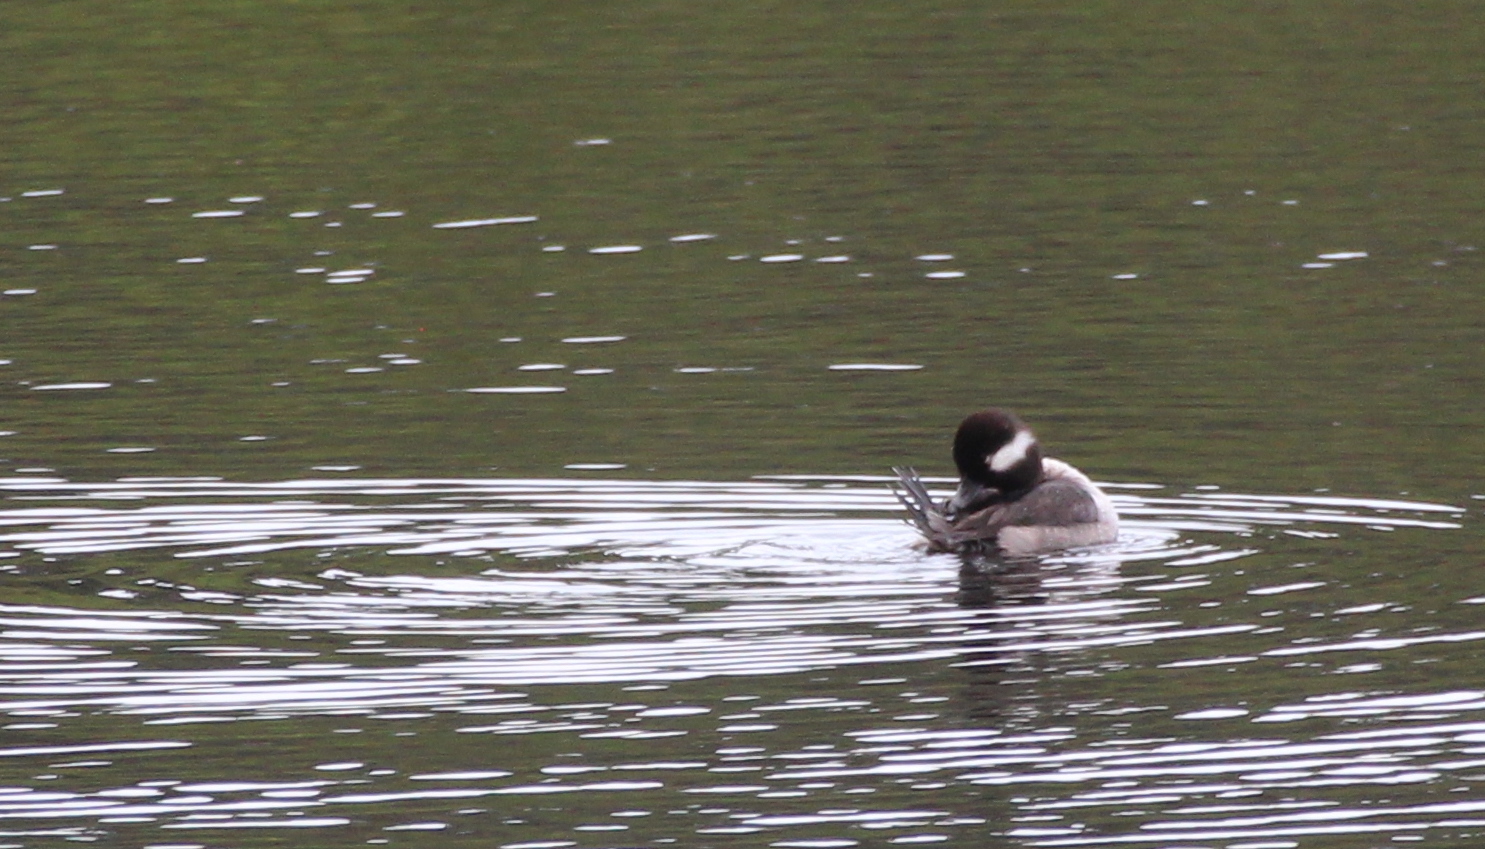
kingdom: Animalia
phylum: Chordata
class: Aves
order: Anseriformes
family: Anatidae
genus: Bucephala
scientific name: Bucephala albeola
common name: Bufflehead
